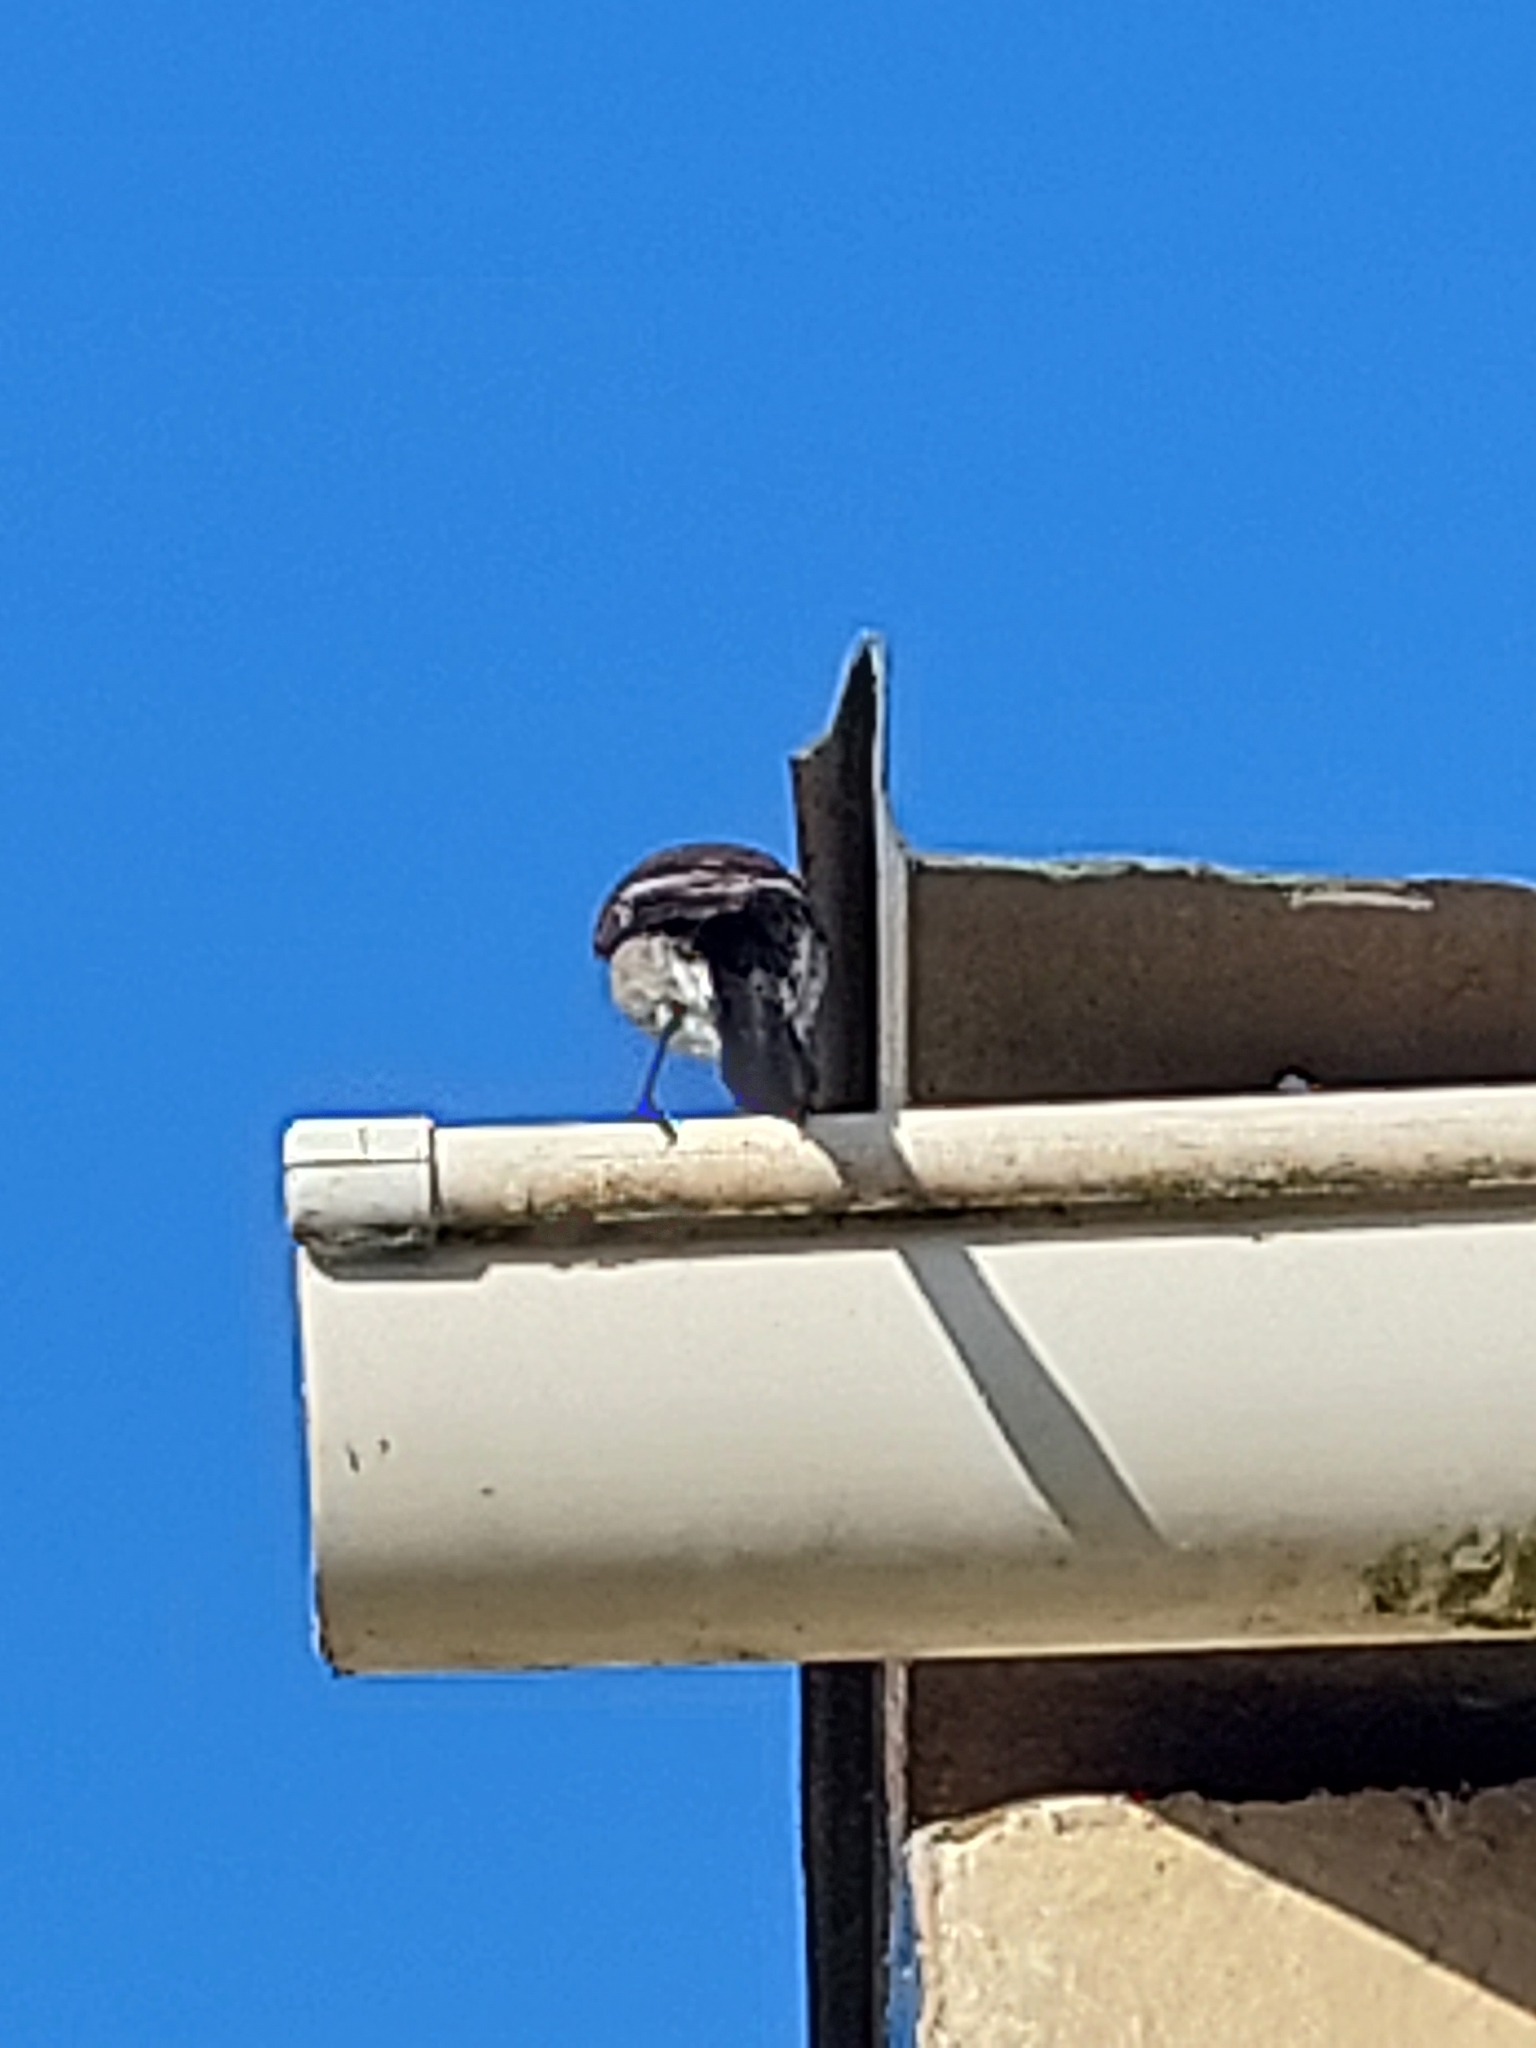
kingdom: Animalia
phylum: Chordata
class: Aves
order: Passeriformes
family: Muscicapidae
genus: Sigelus
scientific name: Sigelus silens
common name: Fiscal flycatcher
